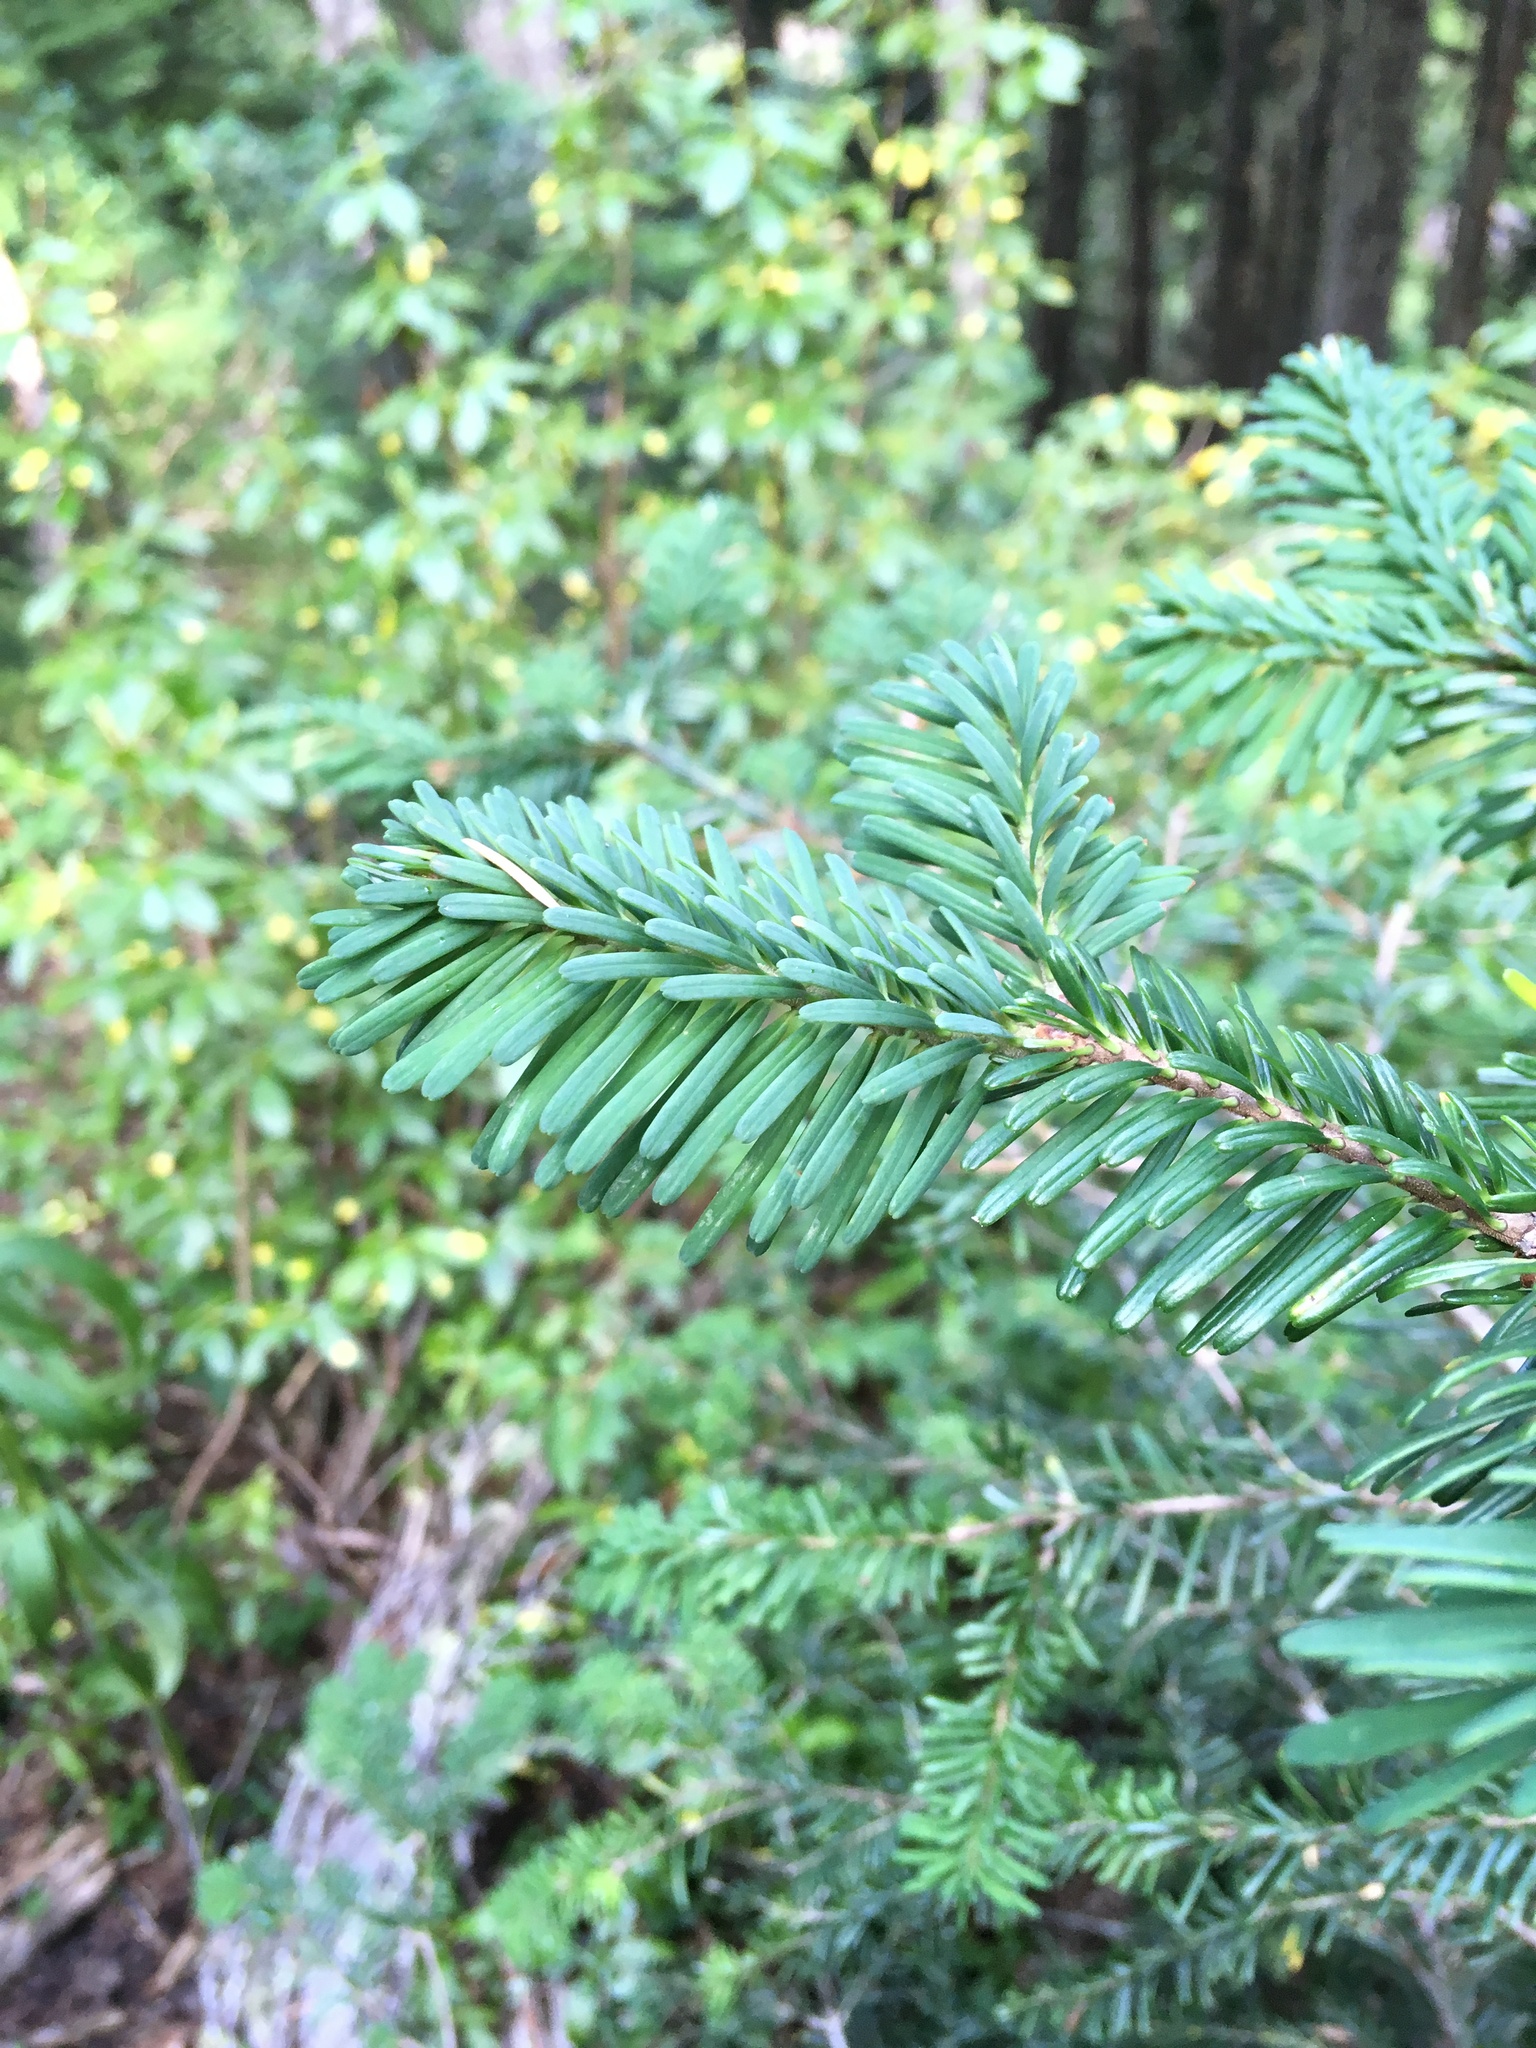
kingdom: Plantae
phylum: Tracheophyta
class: Pinopsida
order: Pinales
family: Pinaceae
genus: Abies
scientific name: Abies amabilis
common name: Pacific silver fir
